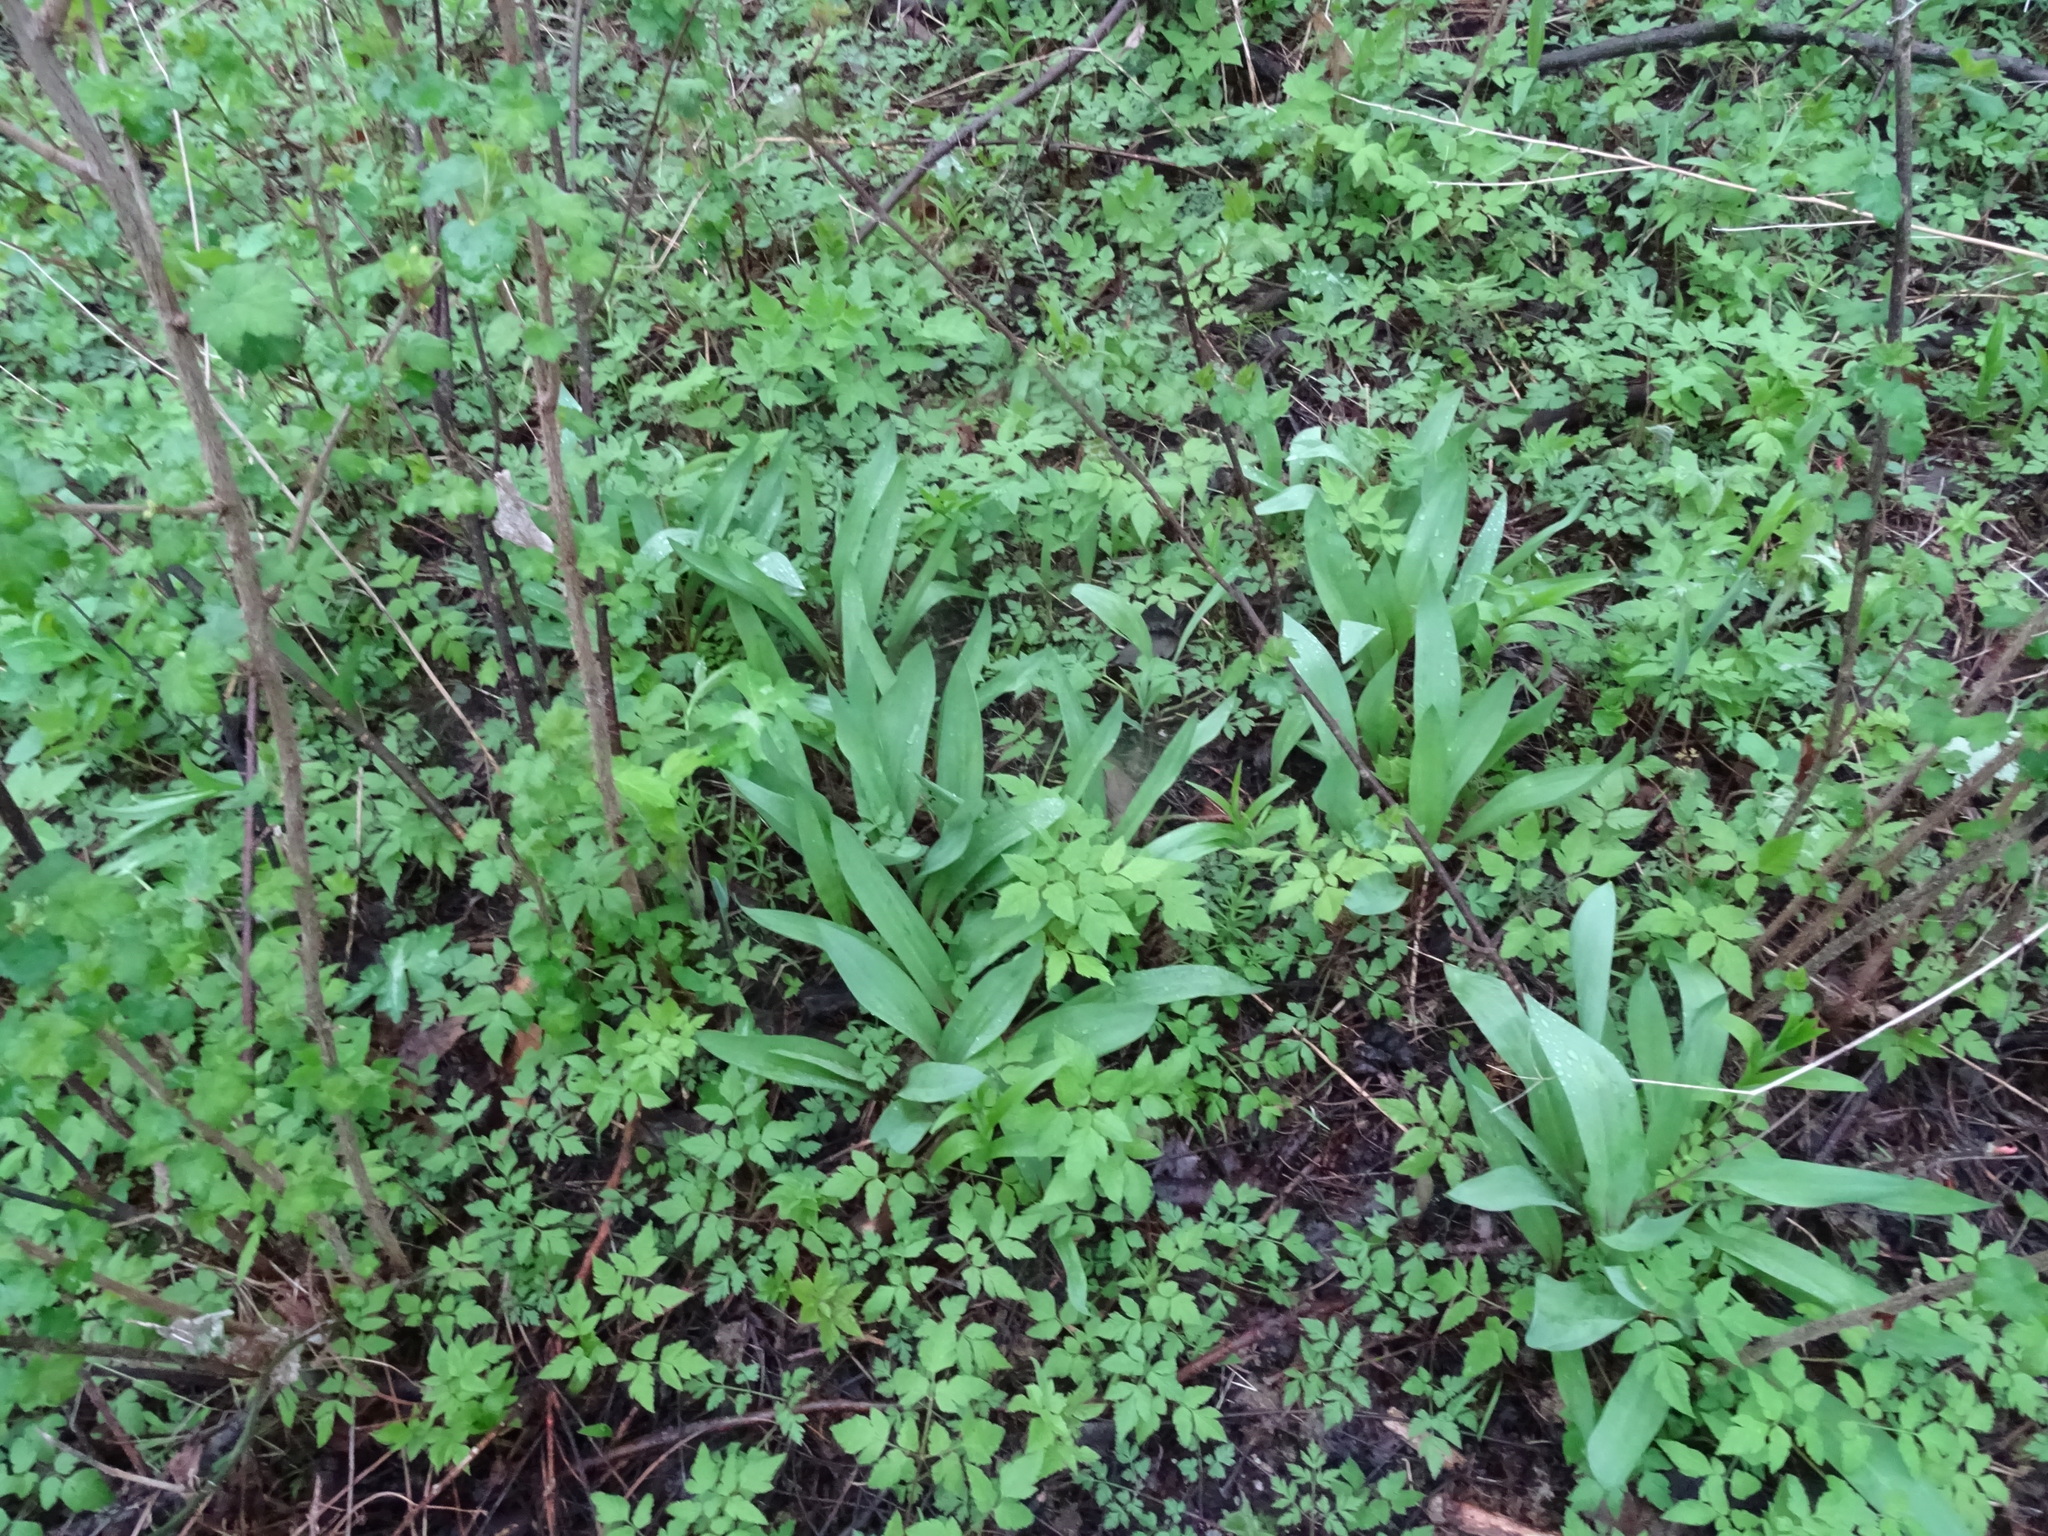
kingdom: Plantae
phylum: Tracheophyta
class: Liliopsida
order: Asparagales
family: Amaryllidaceae
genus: Allium
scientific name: Allium tricoccum
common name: Ramp
